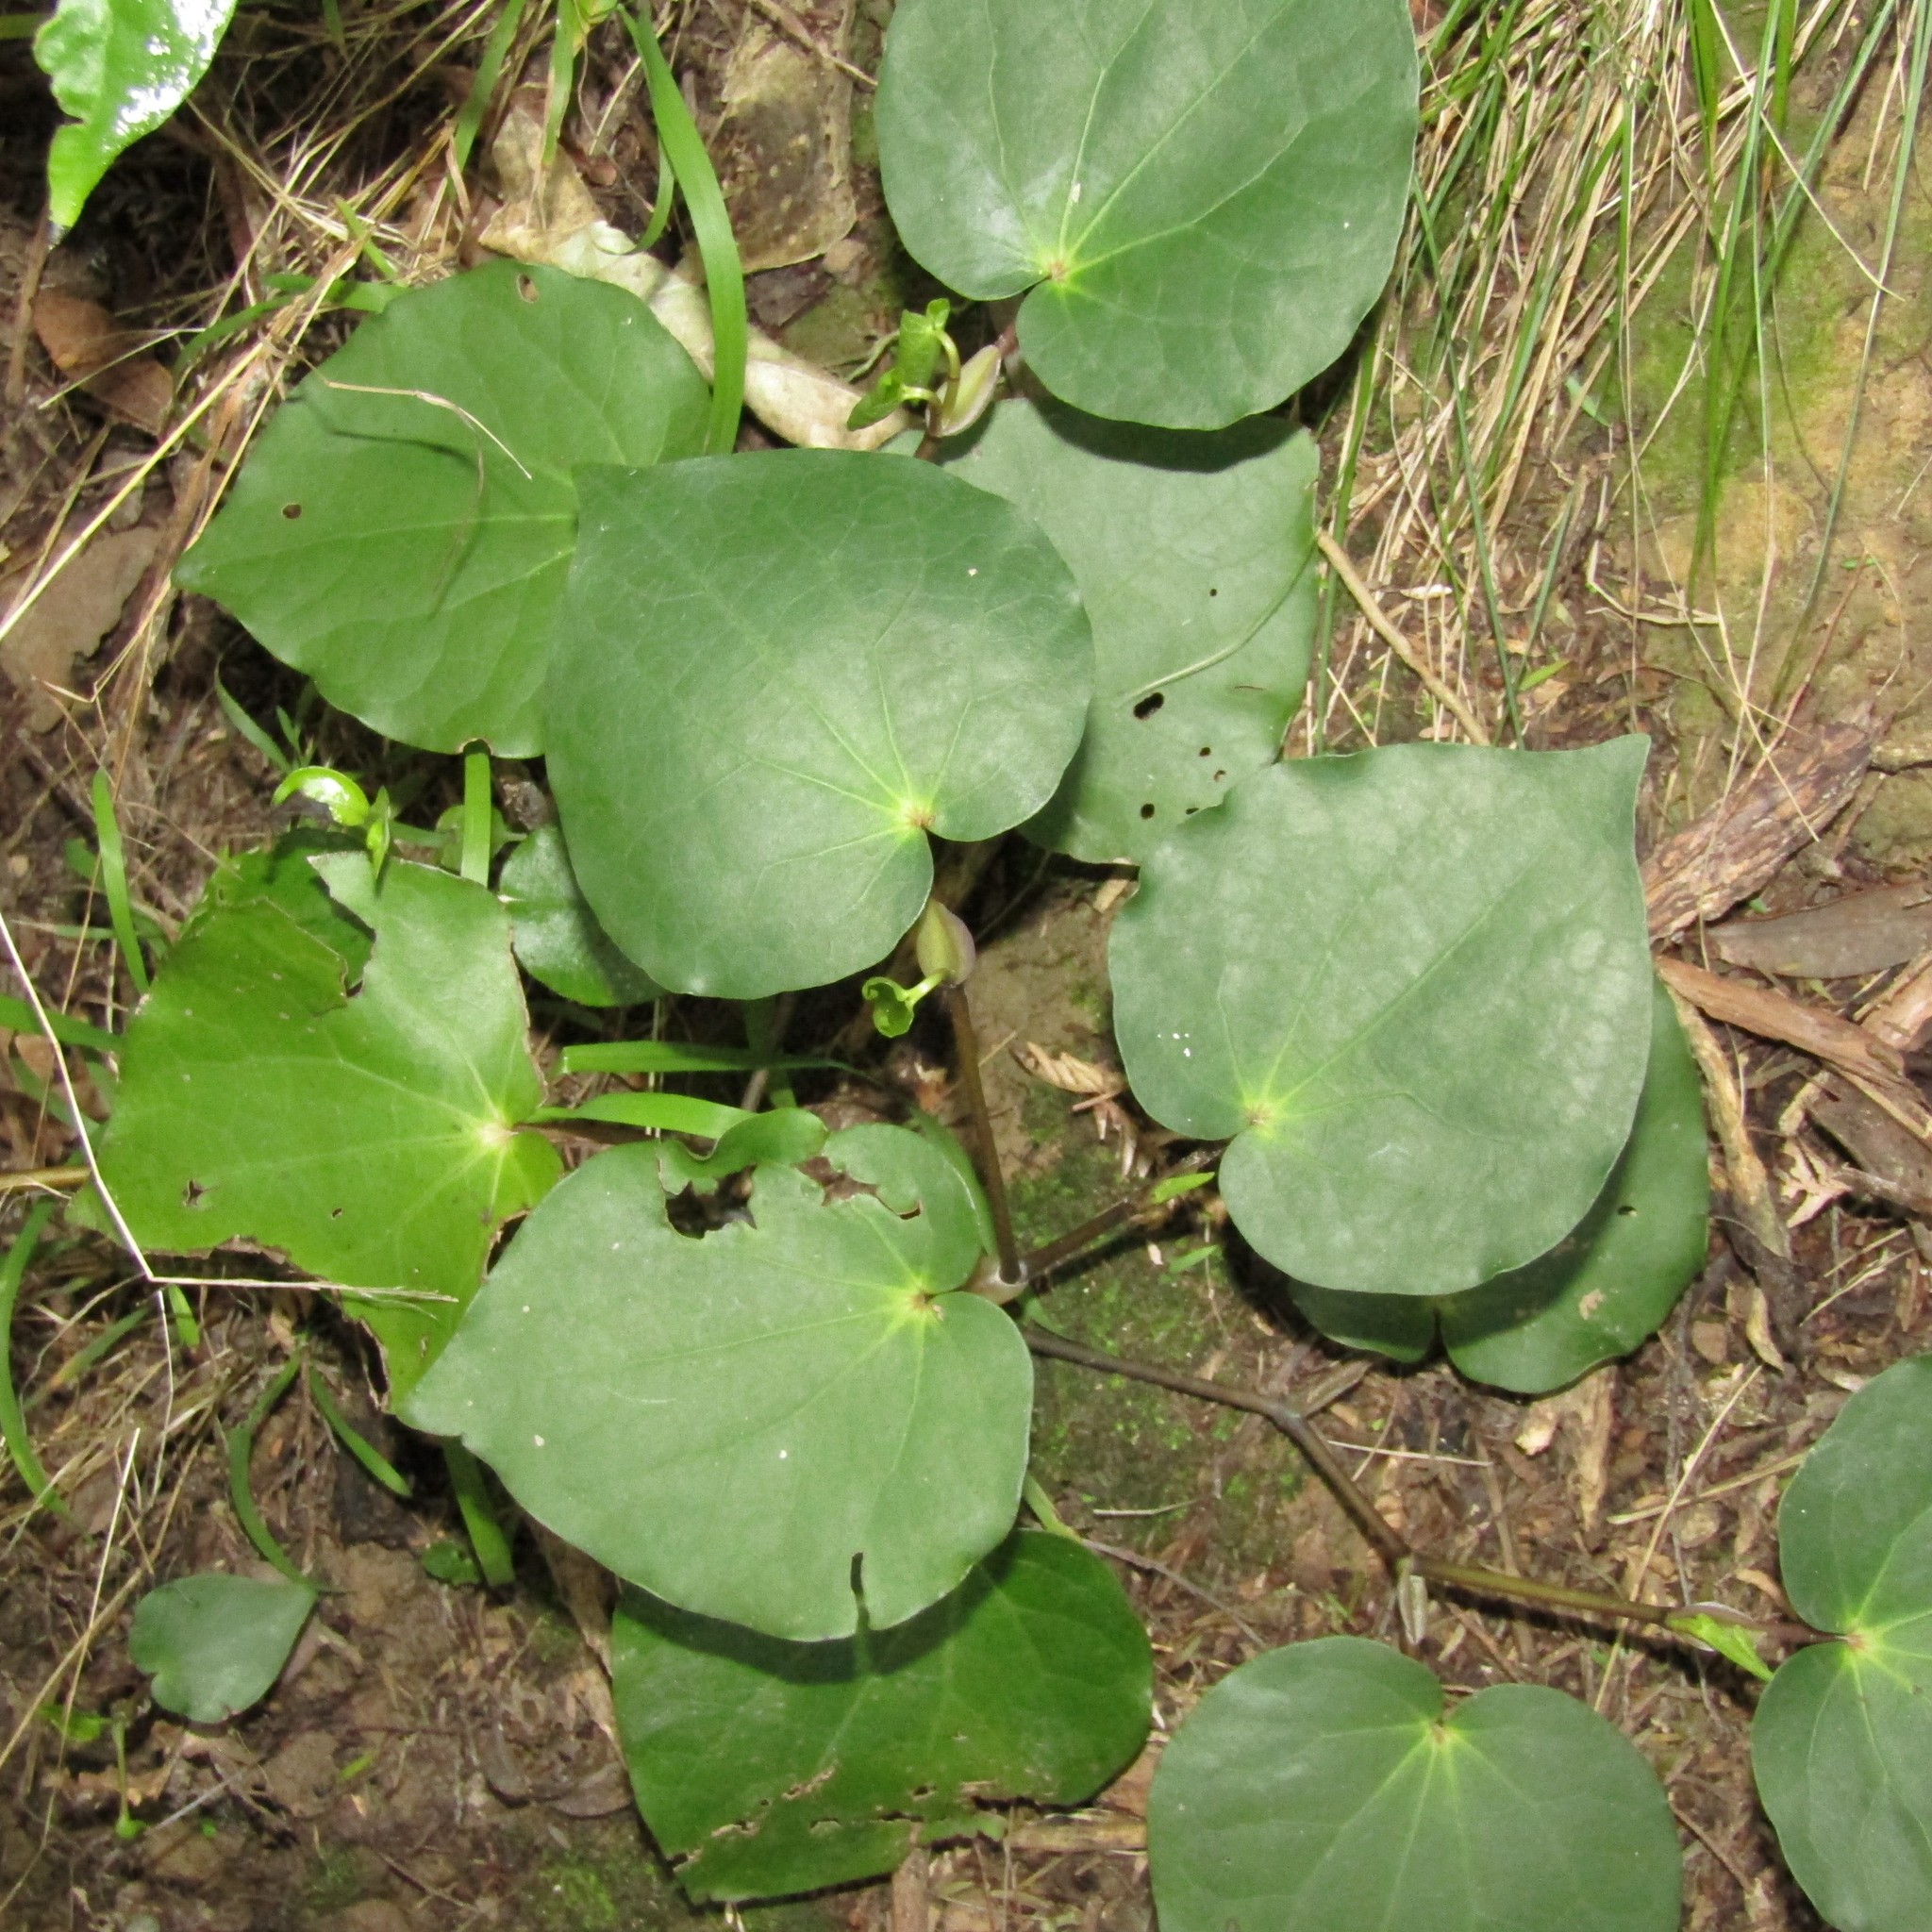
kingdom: Plantae
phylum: Tracheophyta
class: Magnoliopsida
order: Piperales
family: Piperaceae
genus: Macropiper
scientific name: Macropiper excelsum
